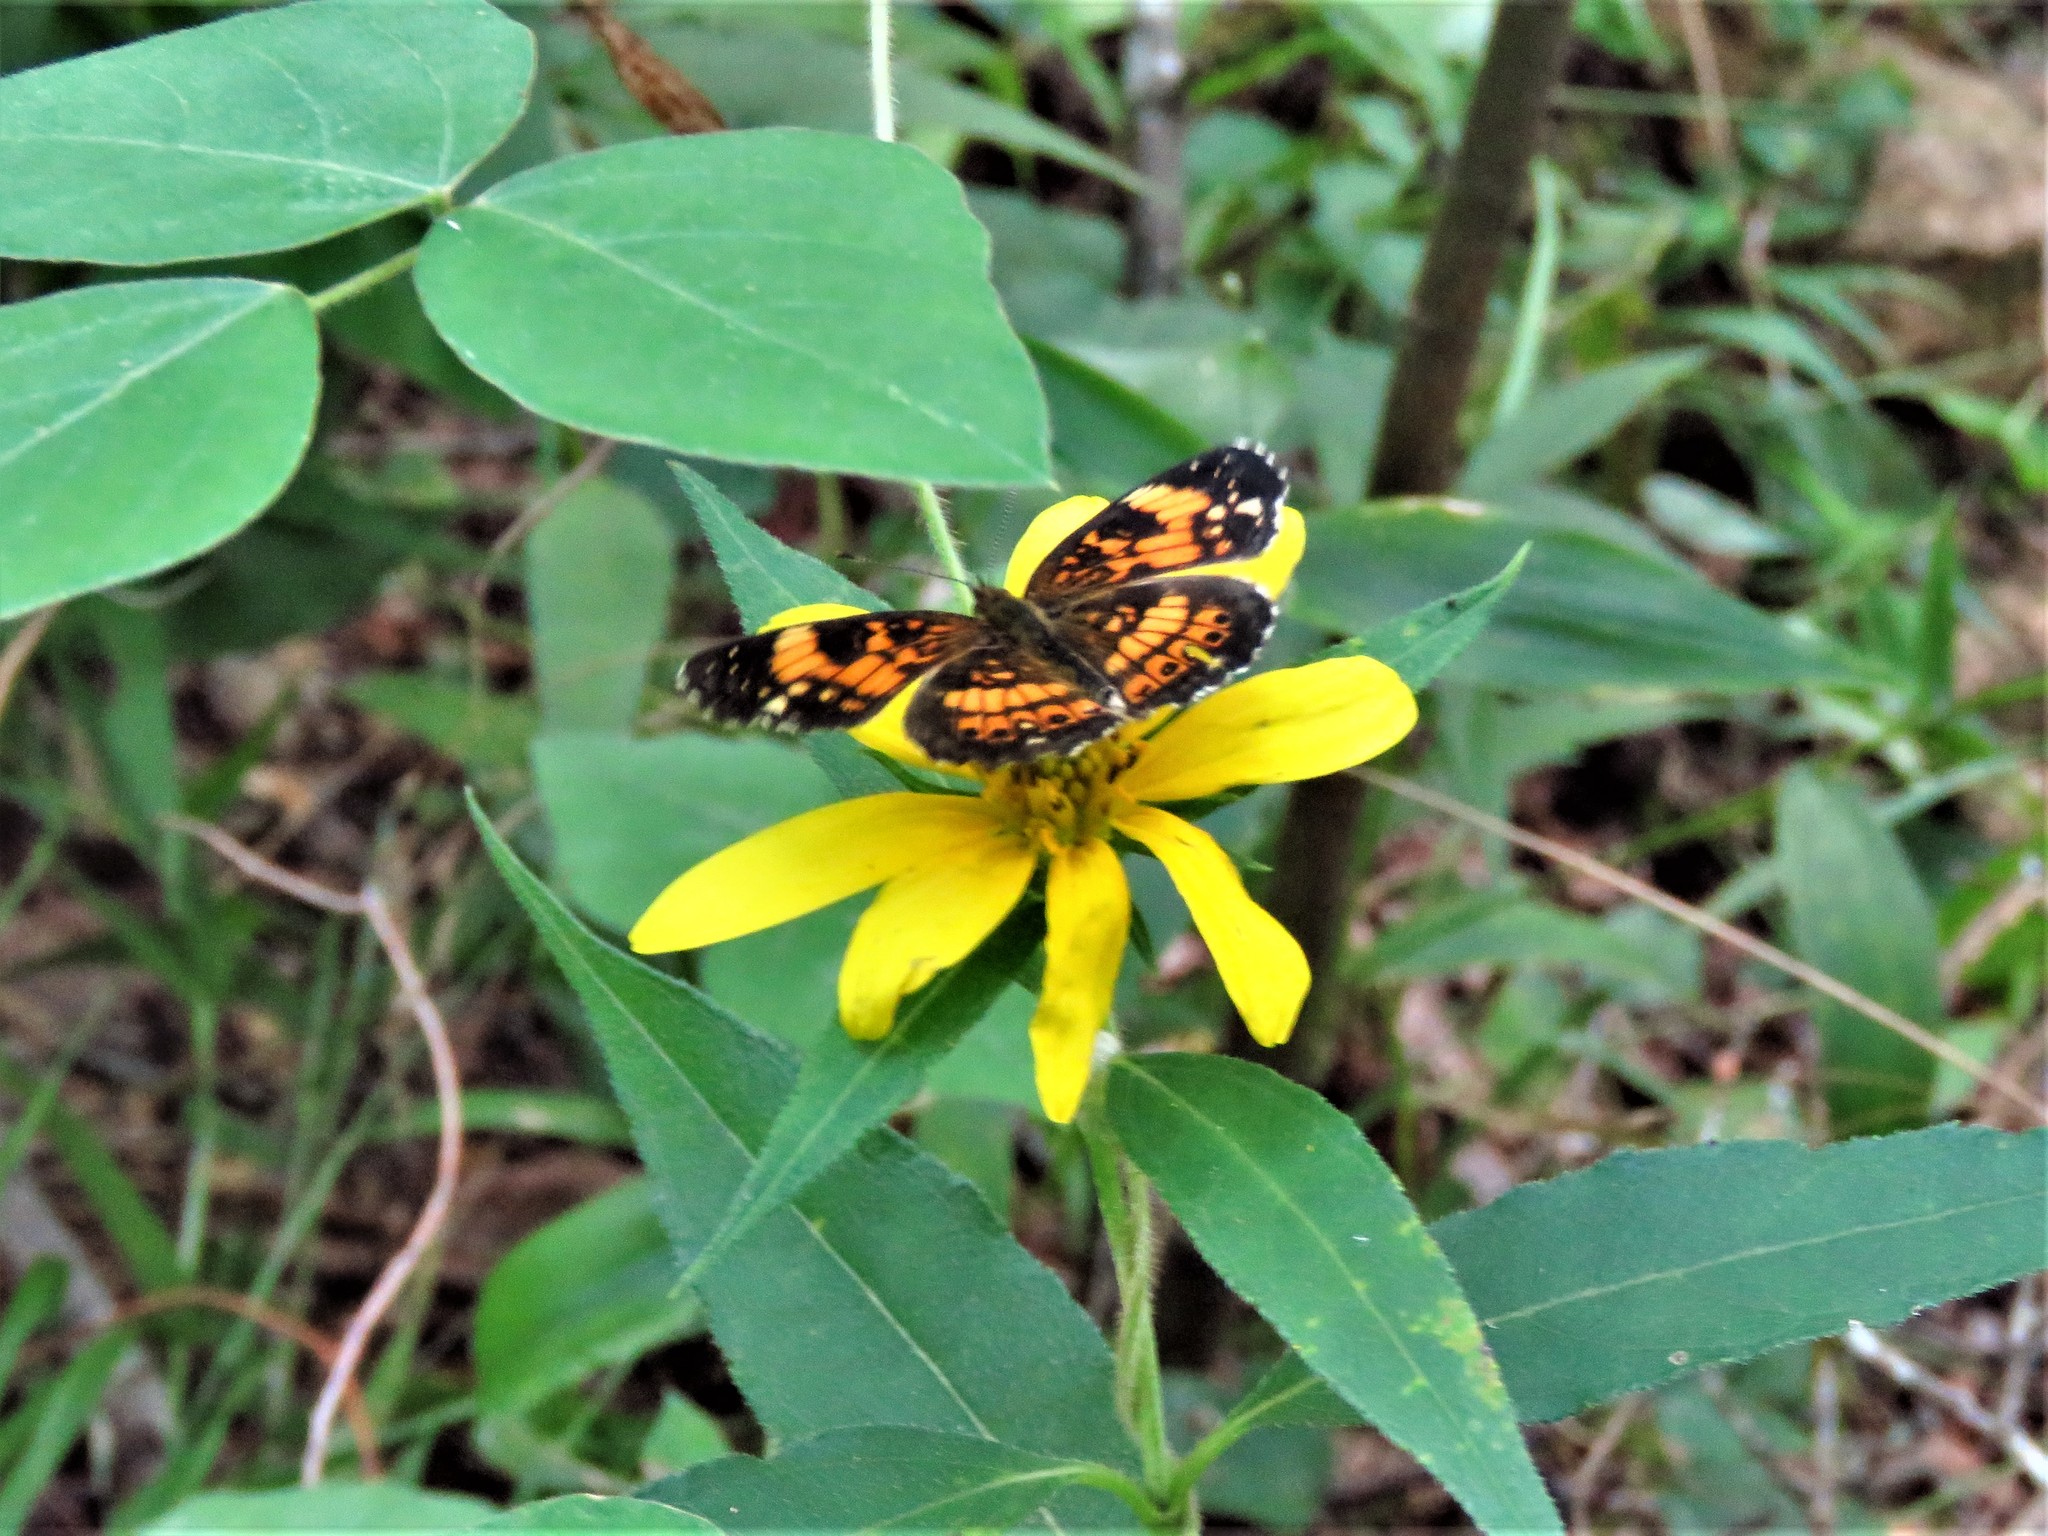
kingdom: Animalia
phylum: Arthropoda
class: Insecta
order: Lepidoptera
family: Nymphalidae
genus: Chlosyne
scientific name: Chlosyne nycteis
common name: Silvery checkerspot
